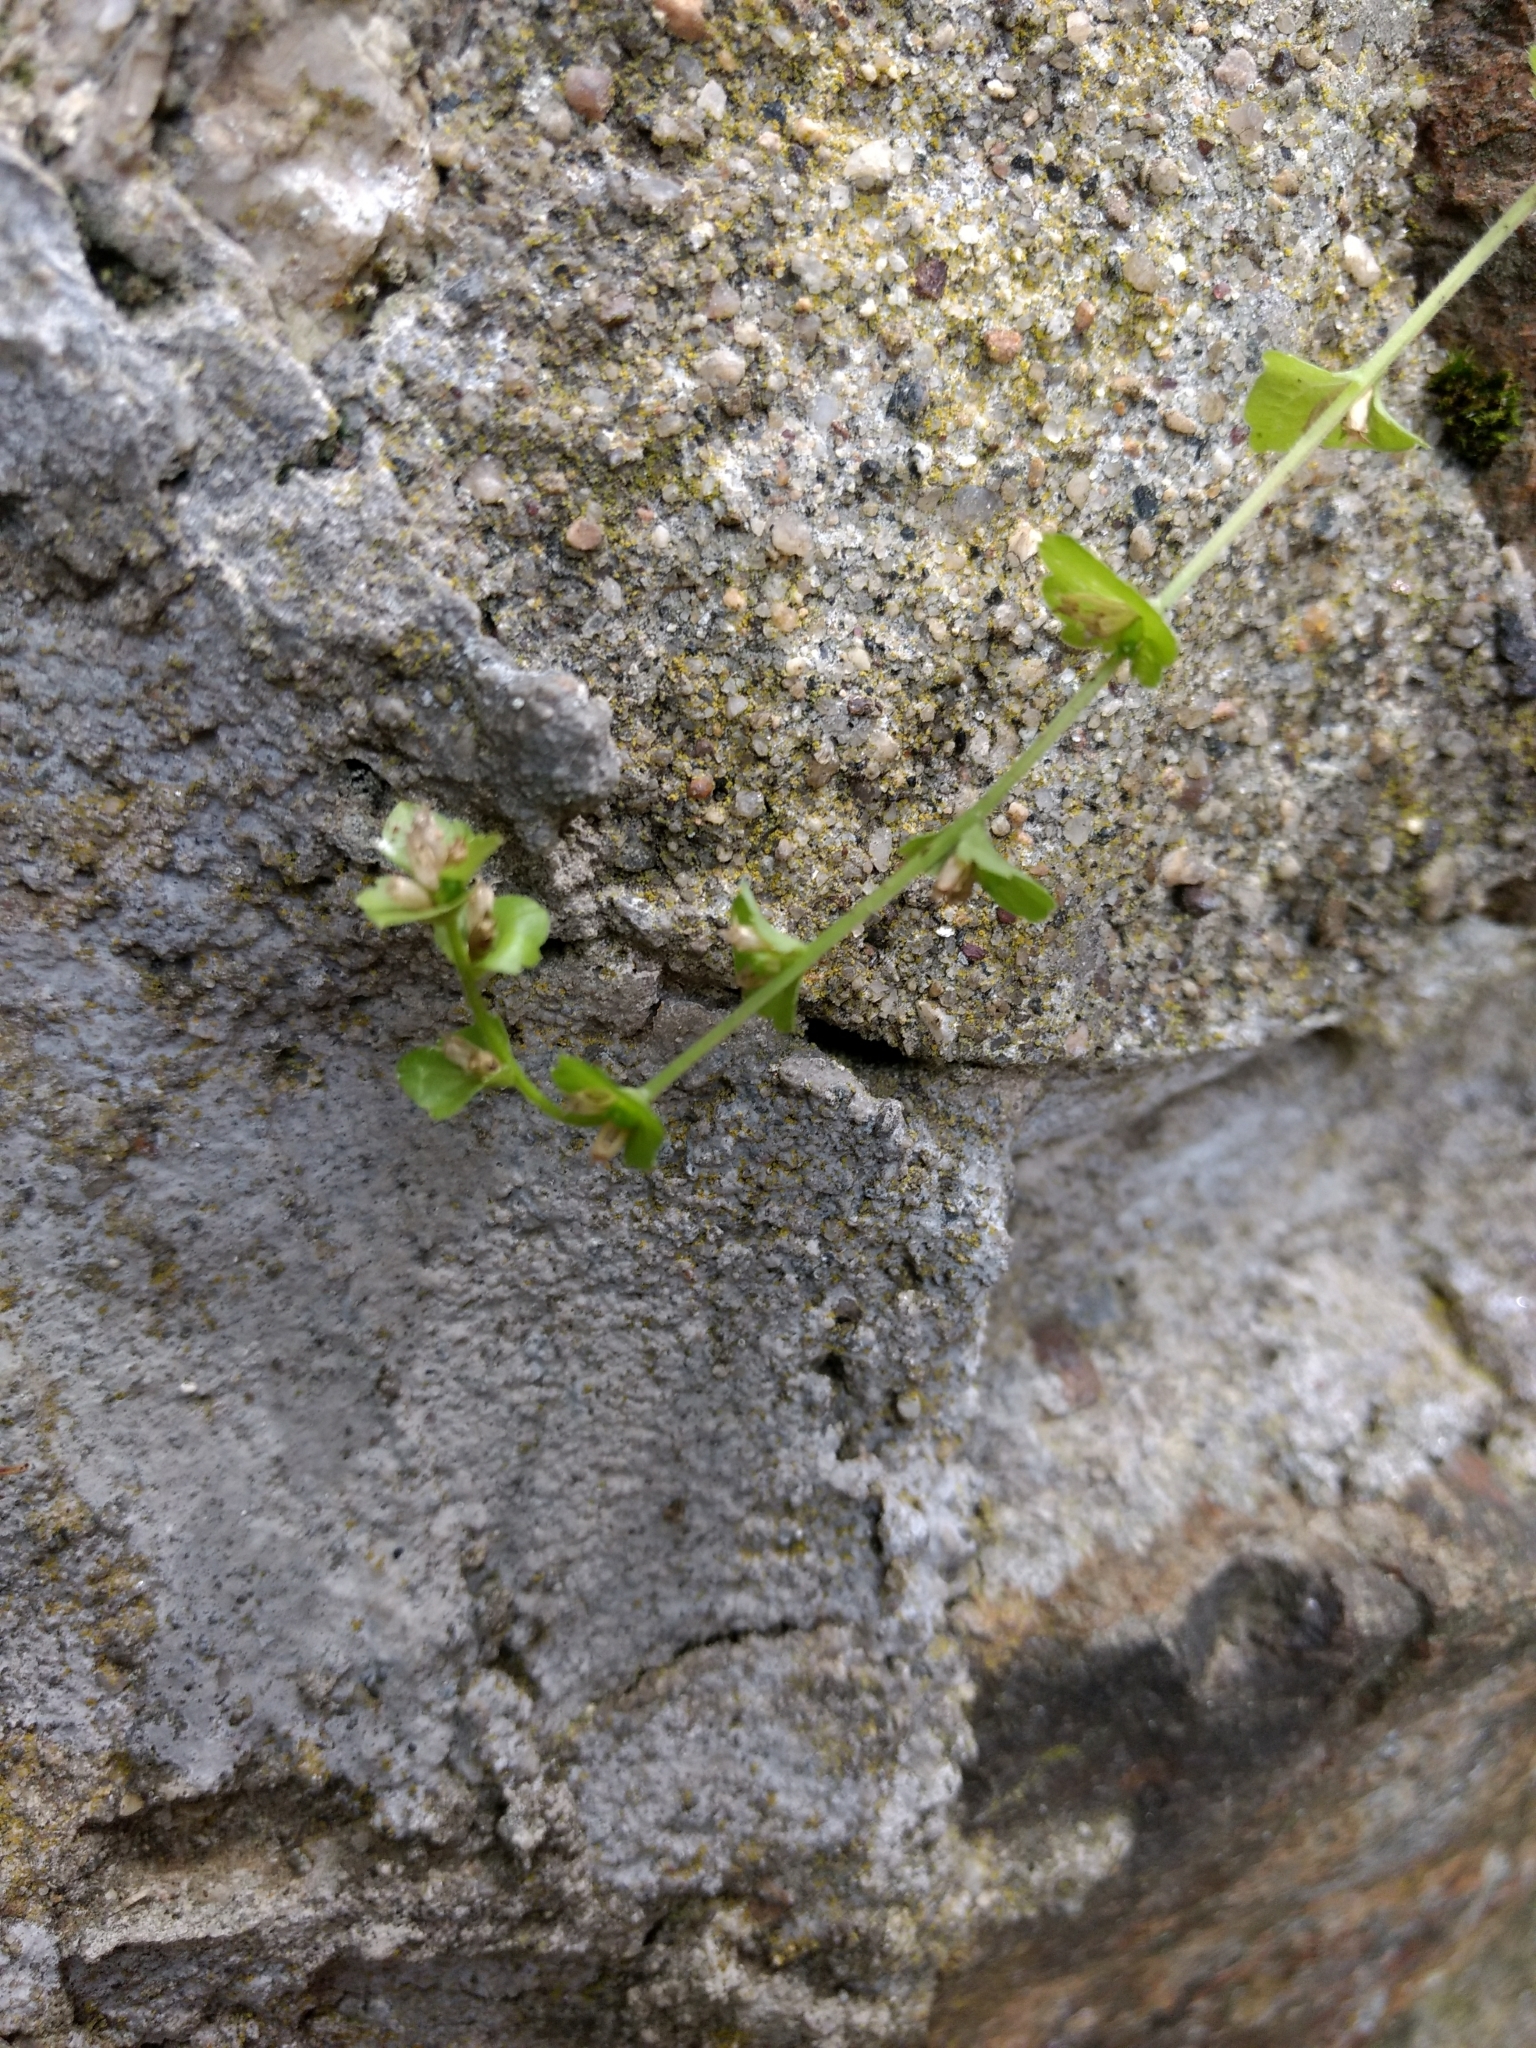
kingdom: Plantae
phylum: Tracheophyta
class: Magnoliopsida
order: Asterales
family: Campanulaceae
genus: Triodanis
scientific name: Triodanis perfoliata
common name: Clasping venus' looking-glass
